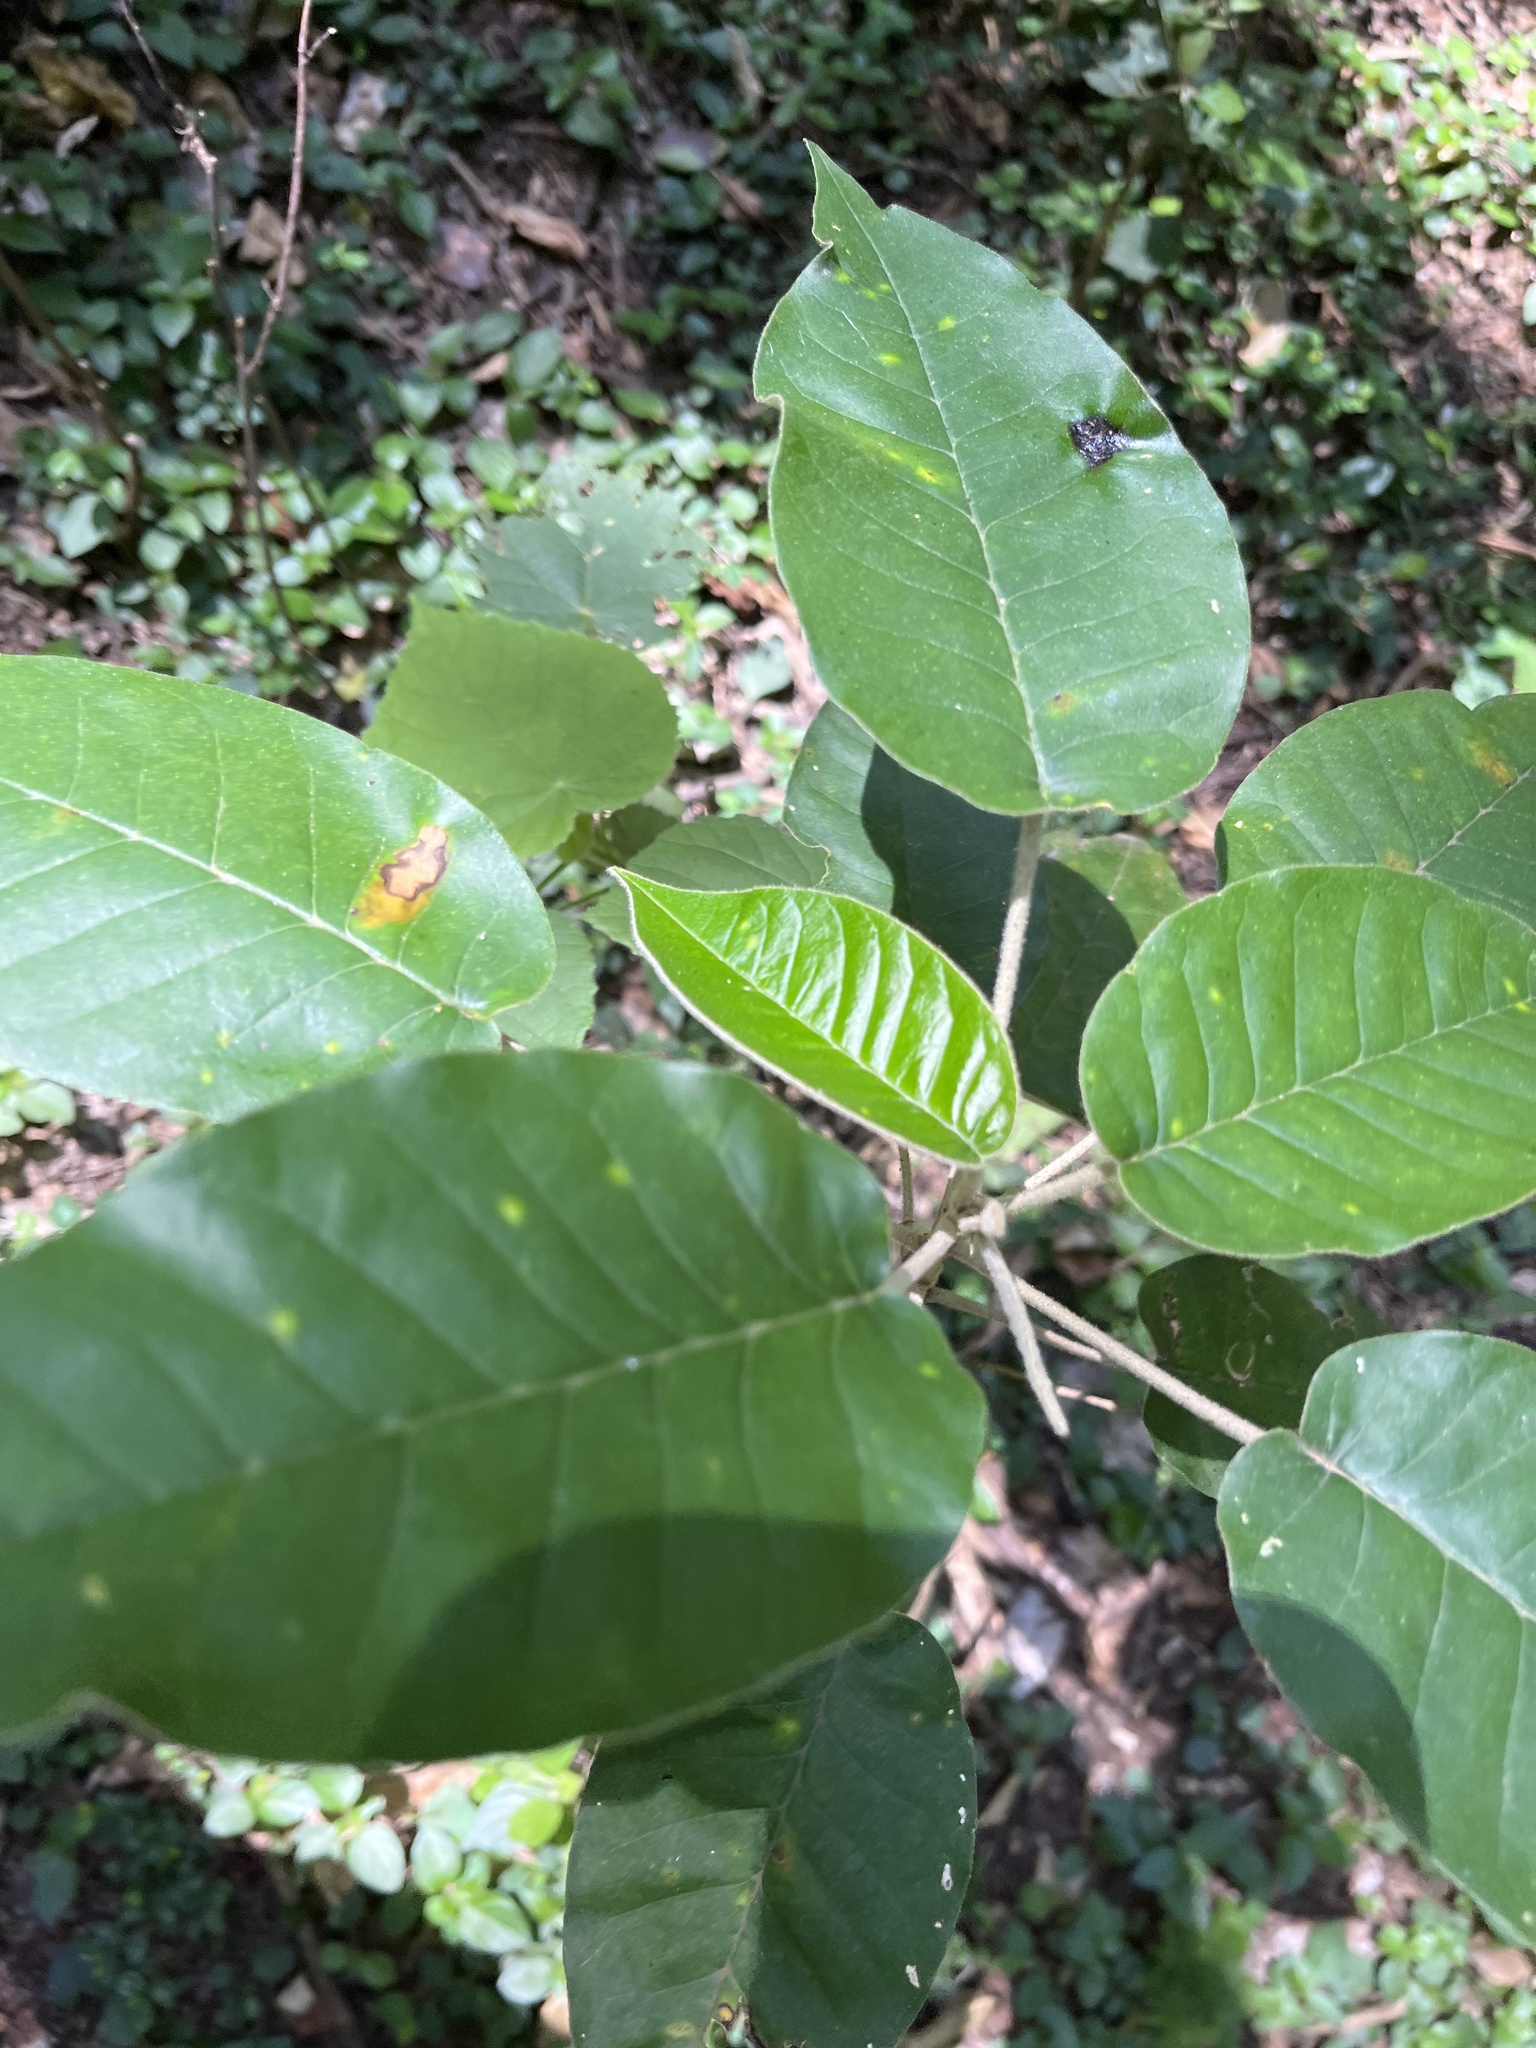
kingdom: Plantae
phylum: Tracheophyta
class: Magnoliopsida
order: Malpighiales
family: Euphorbiaceae
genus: Croton
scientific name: Croton megalocarpus
